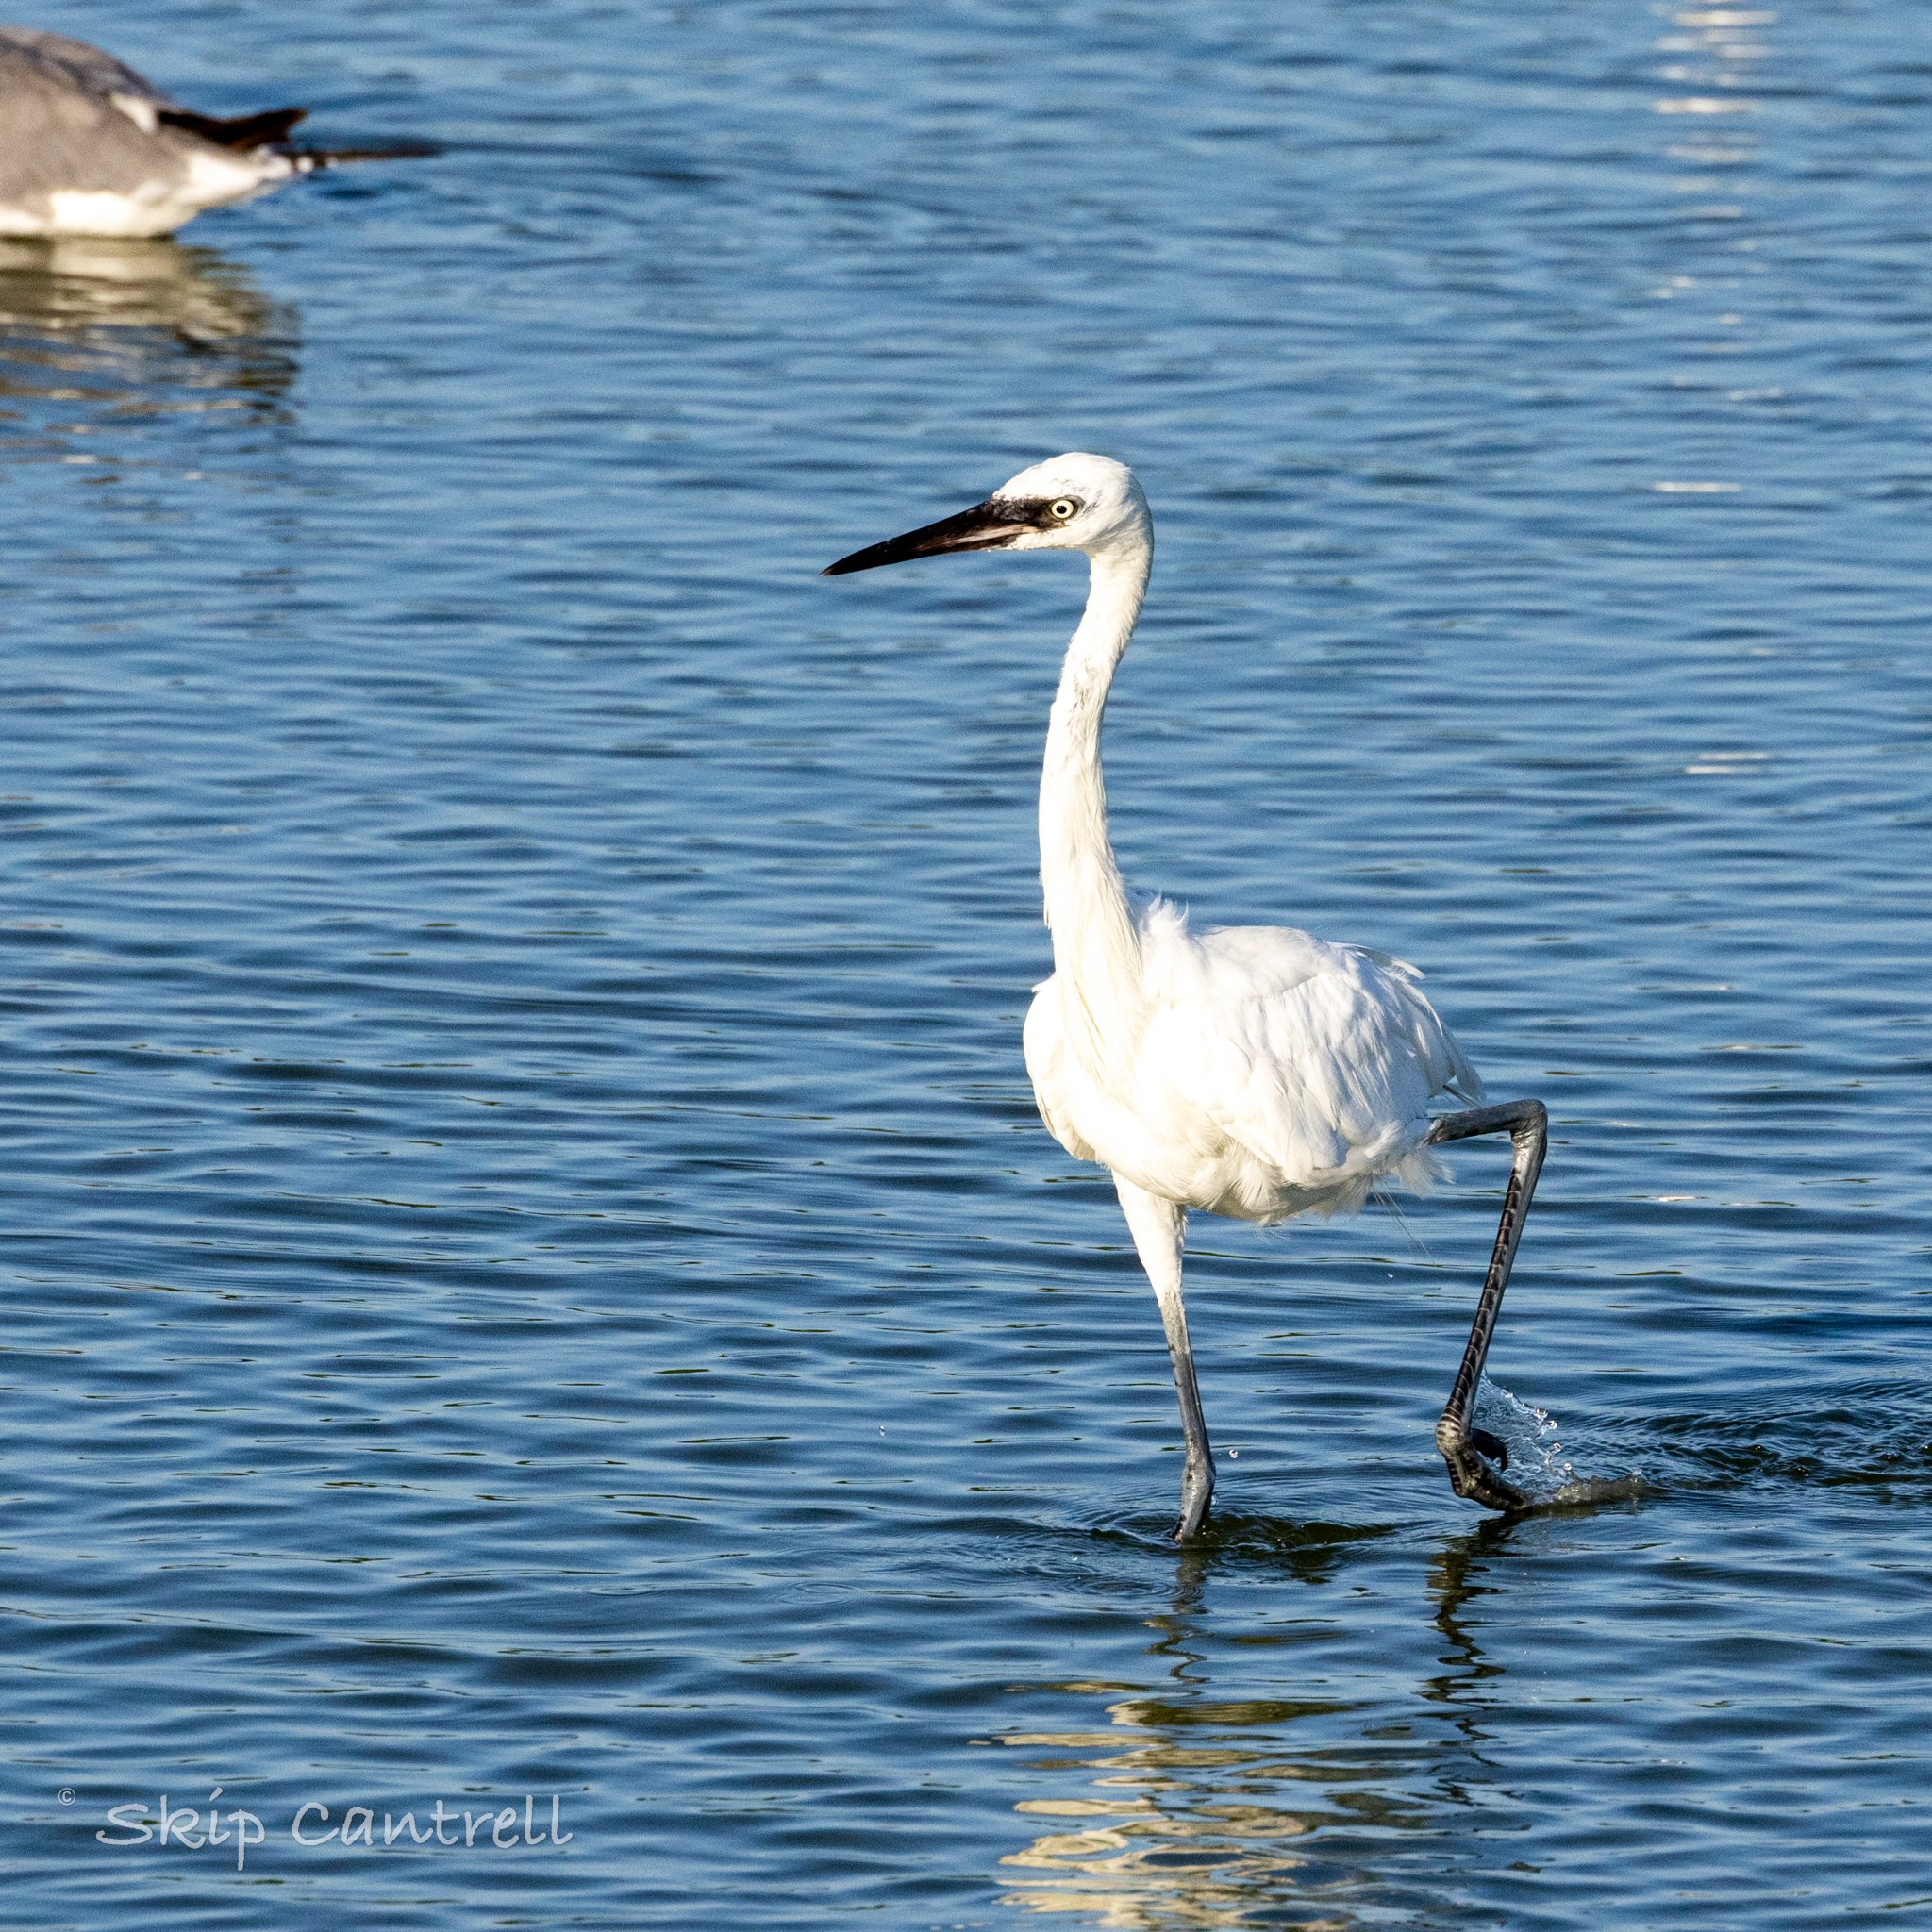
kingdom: Animalia
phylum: Chordata
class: Aves
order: Pelecaniformes
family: Ardeidae
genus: Egretta
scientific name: Egretta rufescens
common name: Reddish egret
